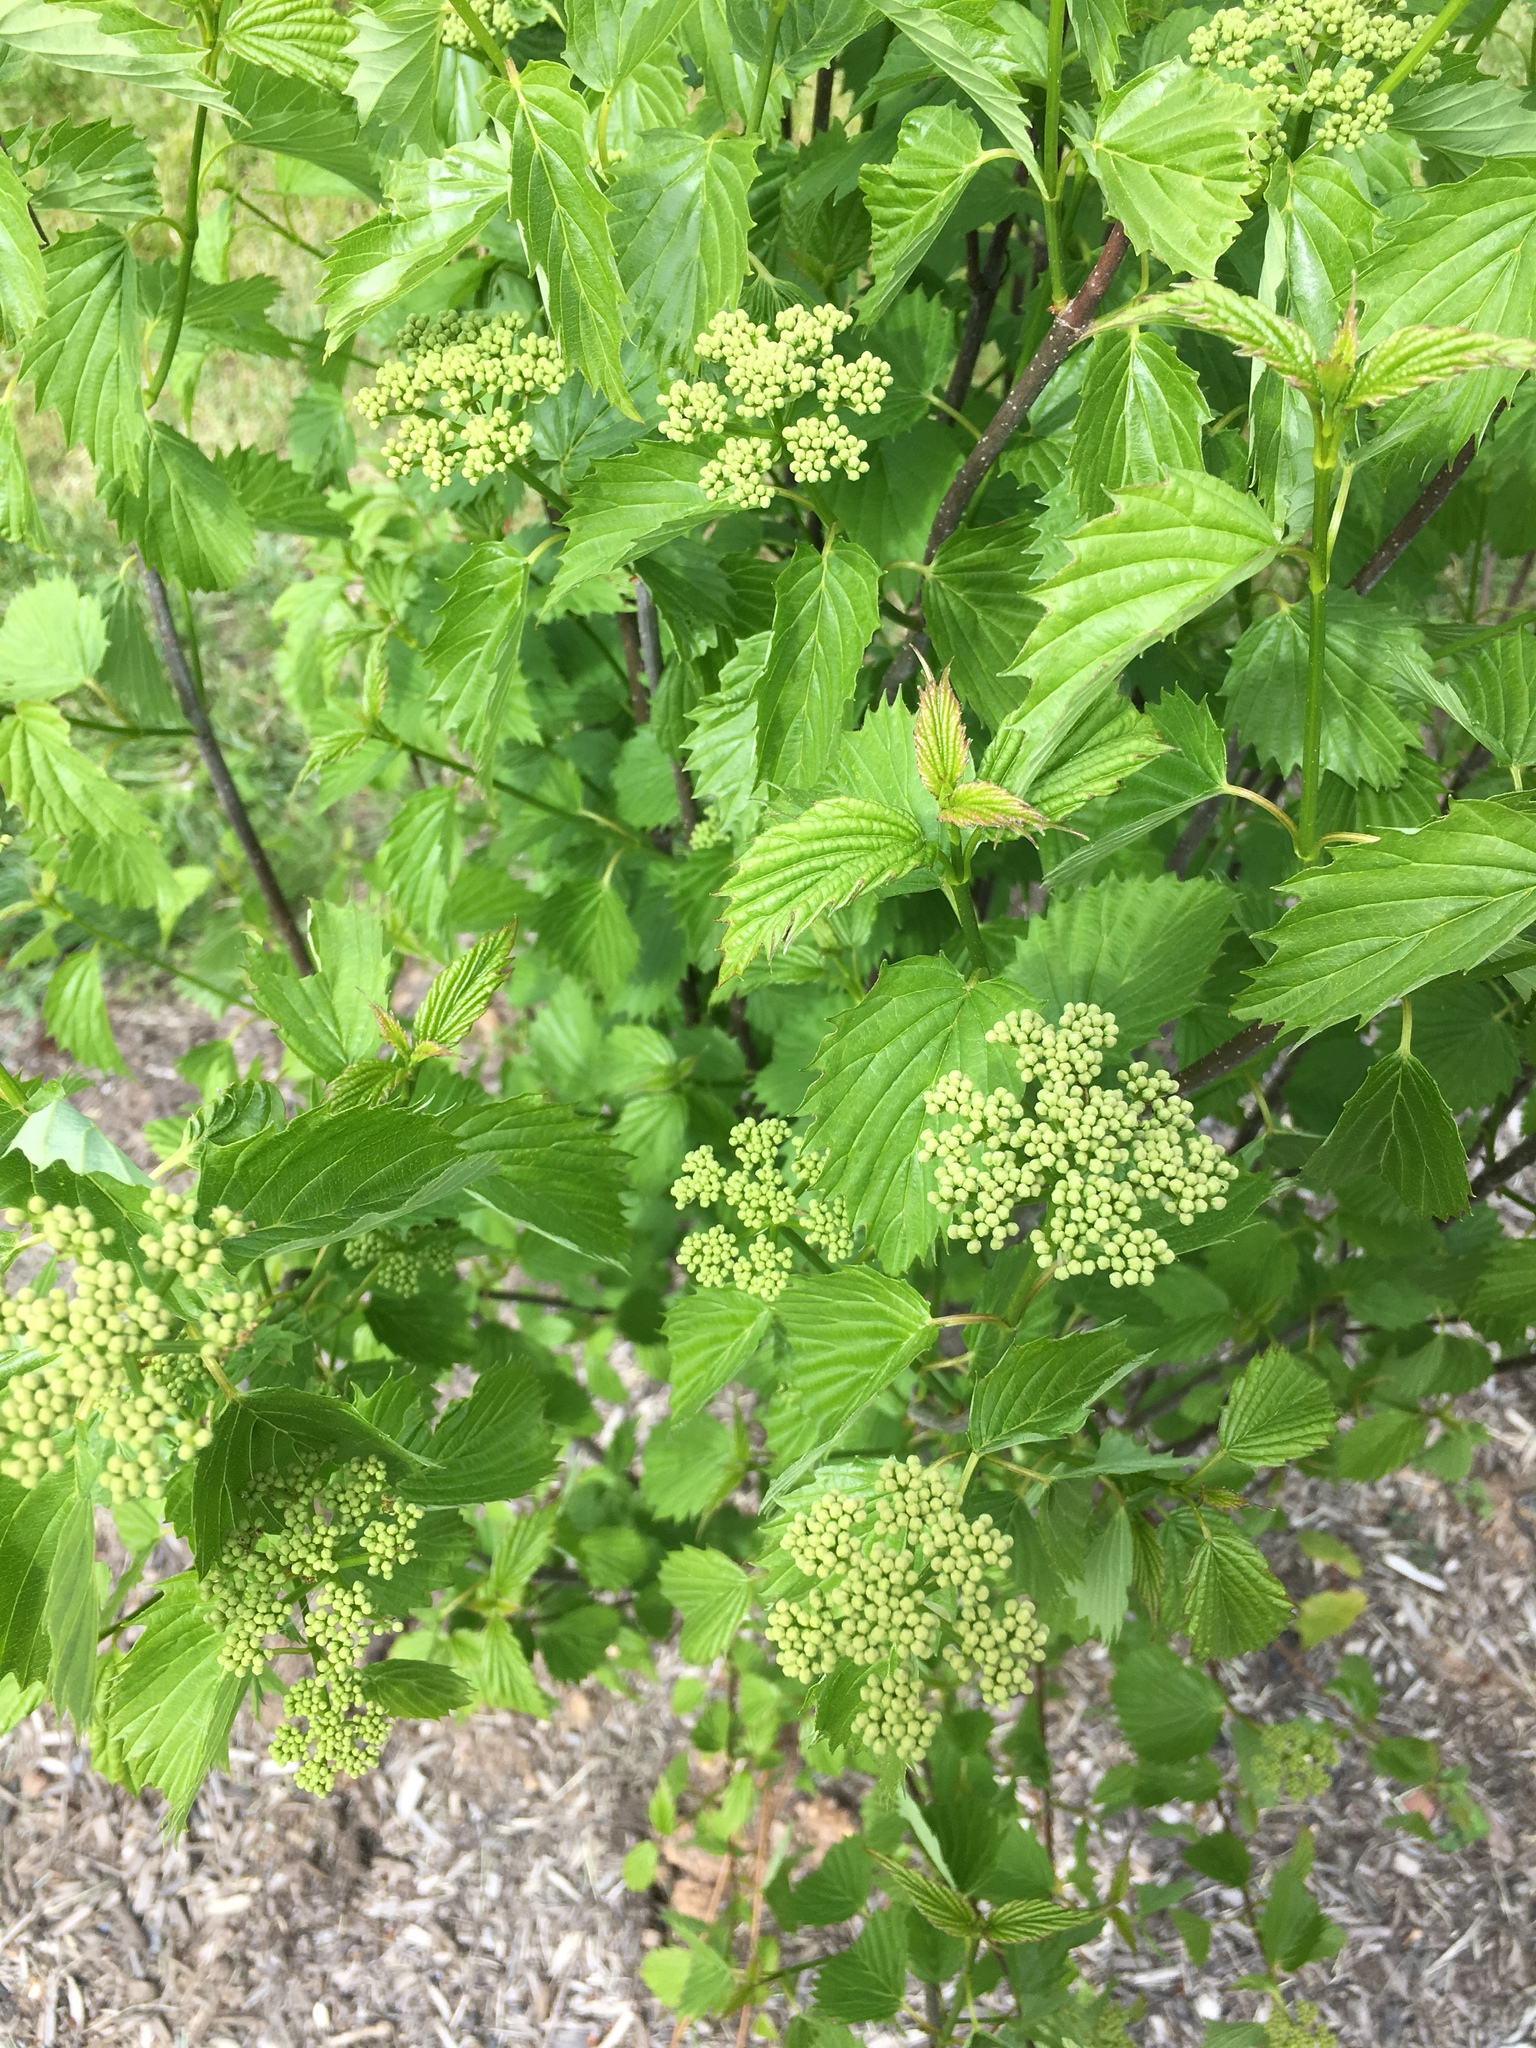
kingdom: Plantae
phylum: Tracheophyta
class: Magnoliopsida
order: Dipsacales
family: Viburnaceae
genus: Viburnum
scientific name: Viburnum dentatum
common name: Arrow-wood
